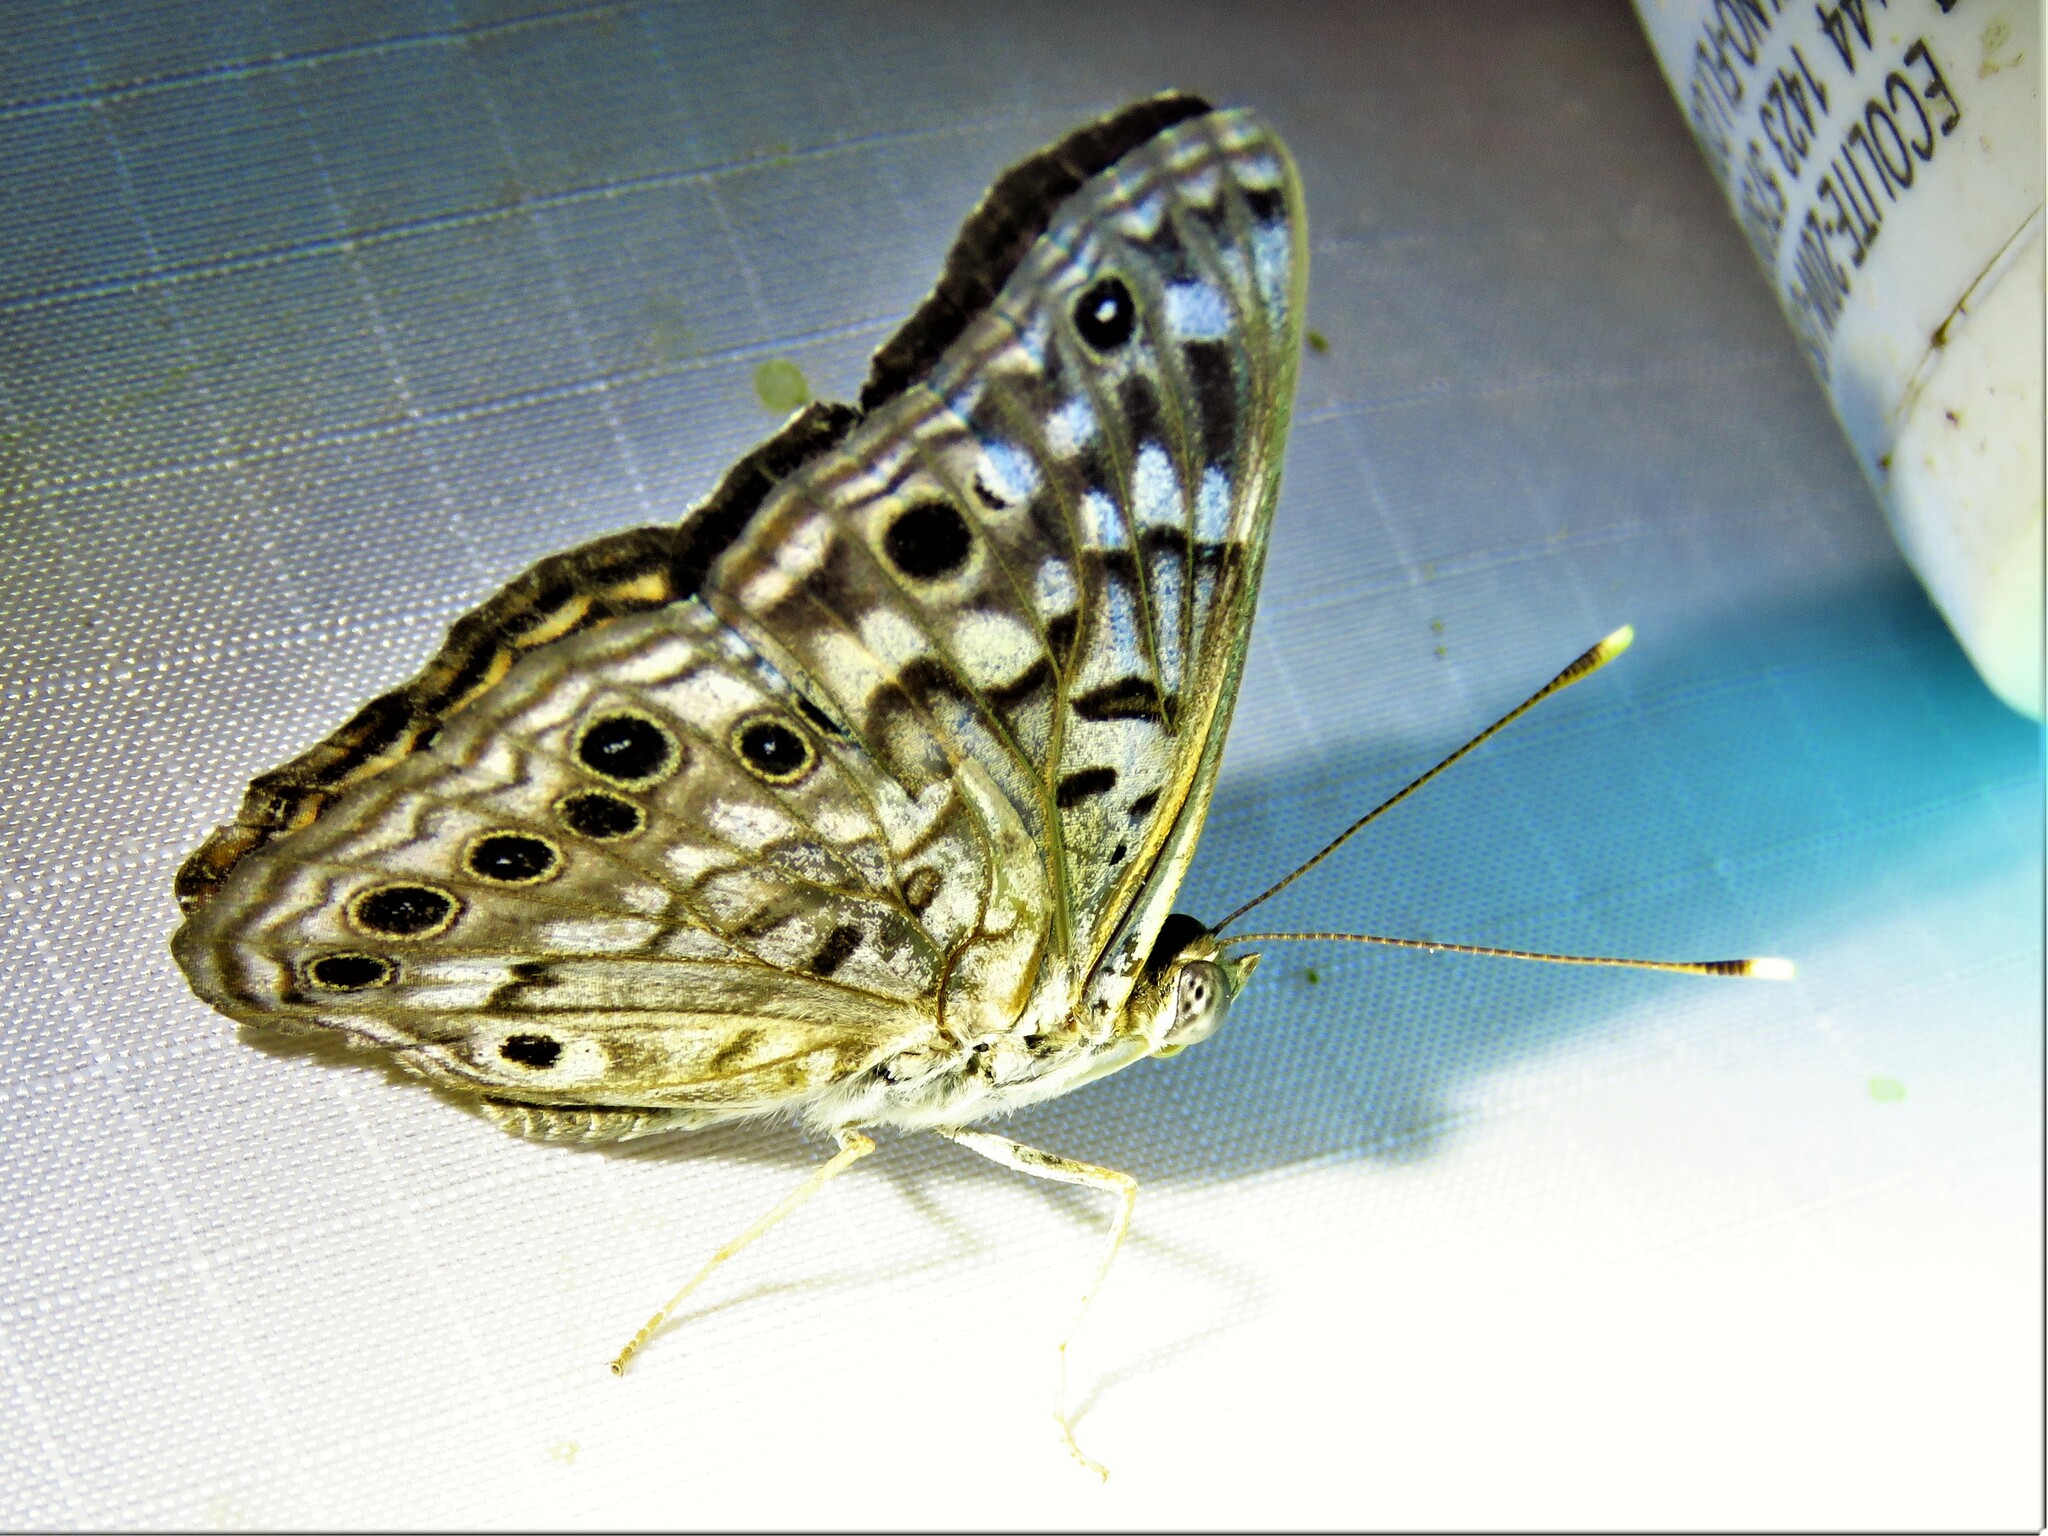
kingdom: Animalia
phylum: Arthropoda
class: Insecta
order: Lepidoptera
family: Nymphalidae
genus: Asterocampa
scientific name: Asterocampa celtis
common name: Hackberry emperor
